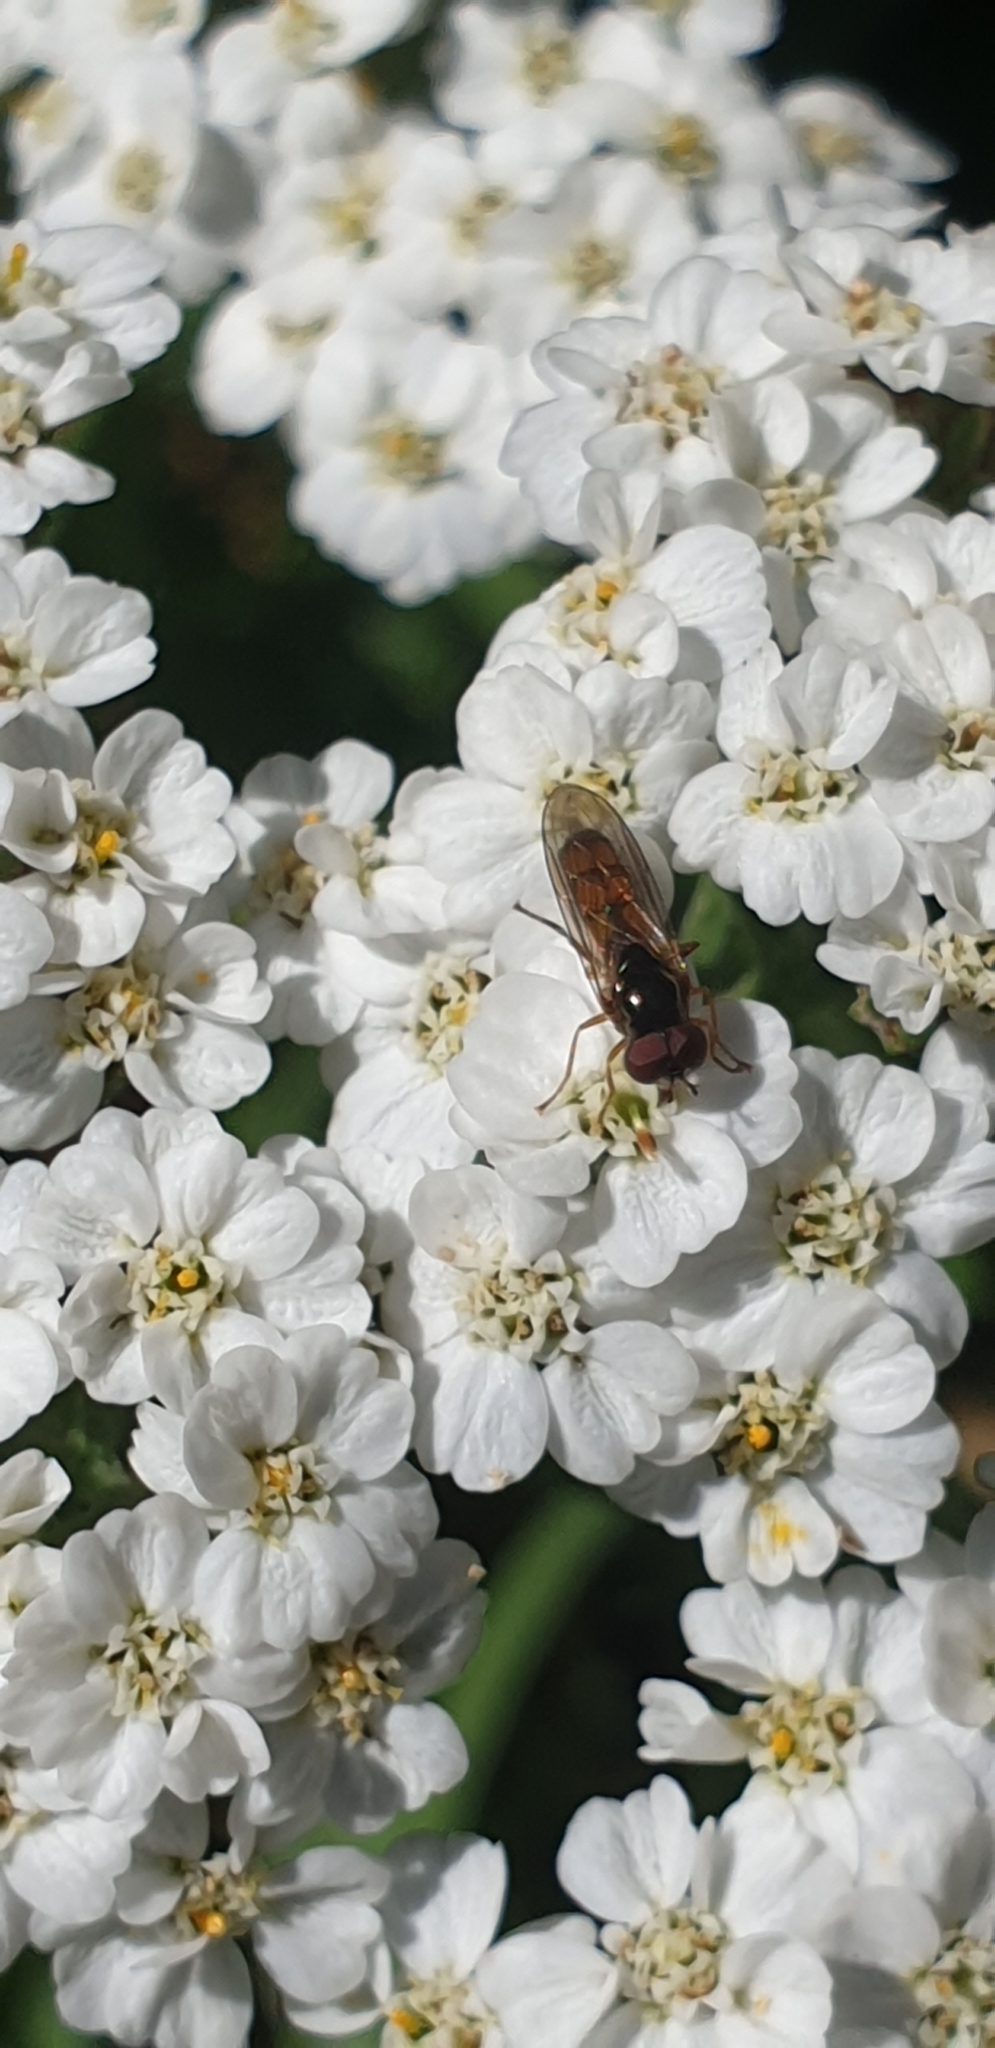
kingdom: Animalia
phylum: Arthropoda
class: Insecta
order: Diptera
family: Syrphidae
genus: Orthoprosopa
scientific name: Orthoprosopa bilineata
